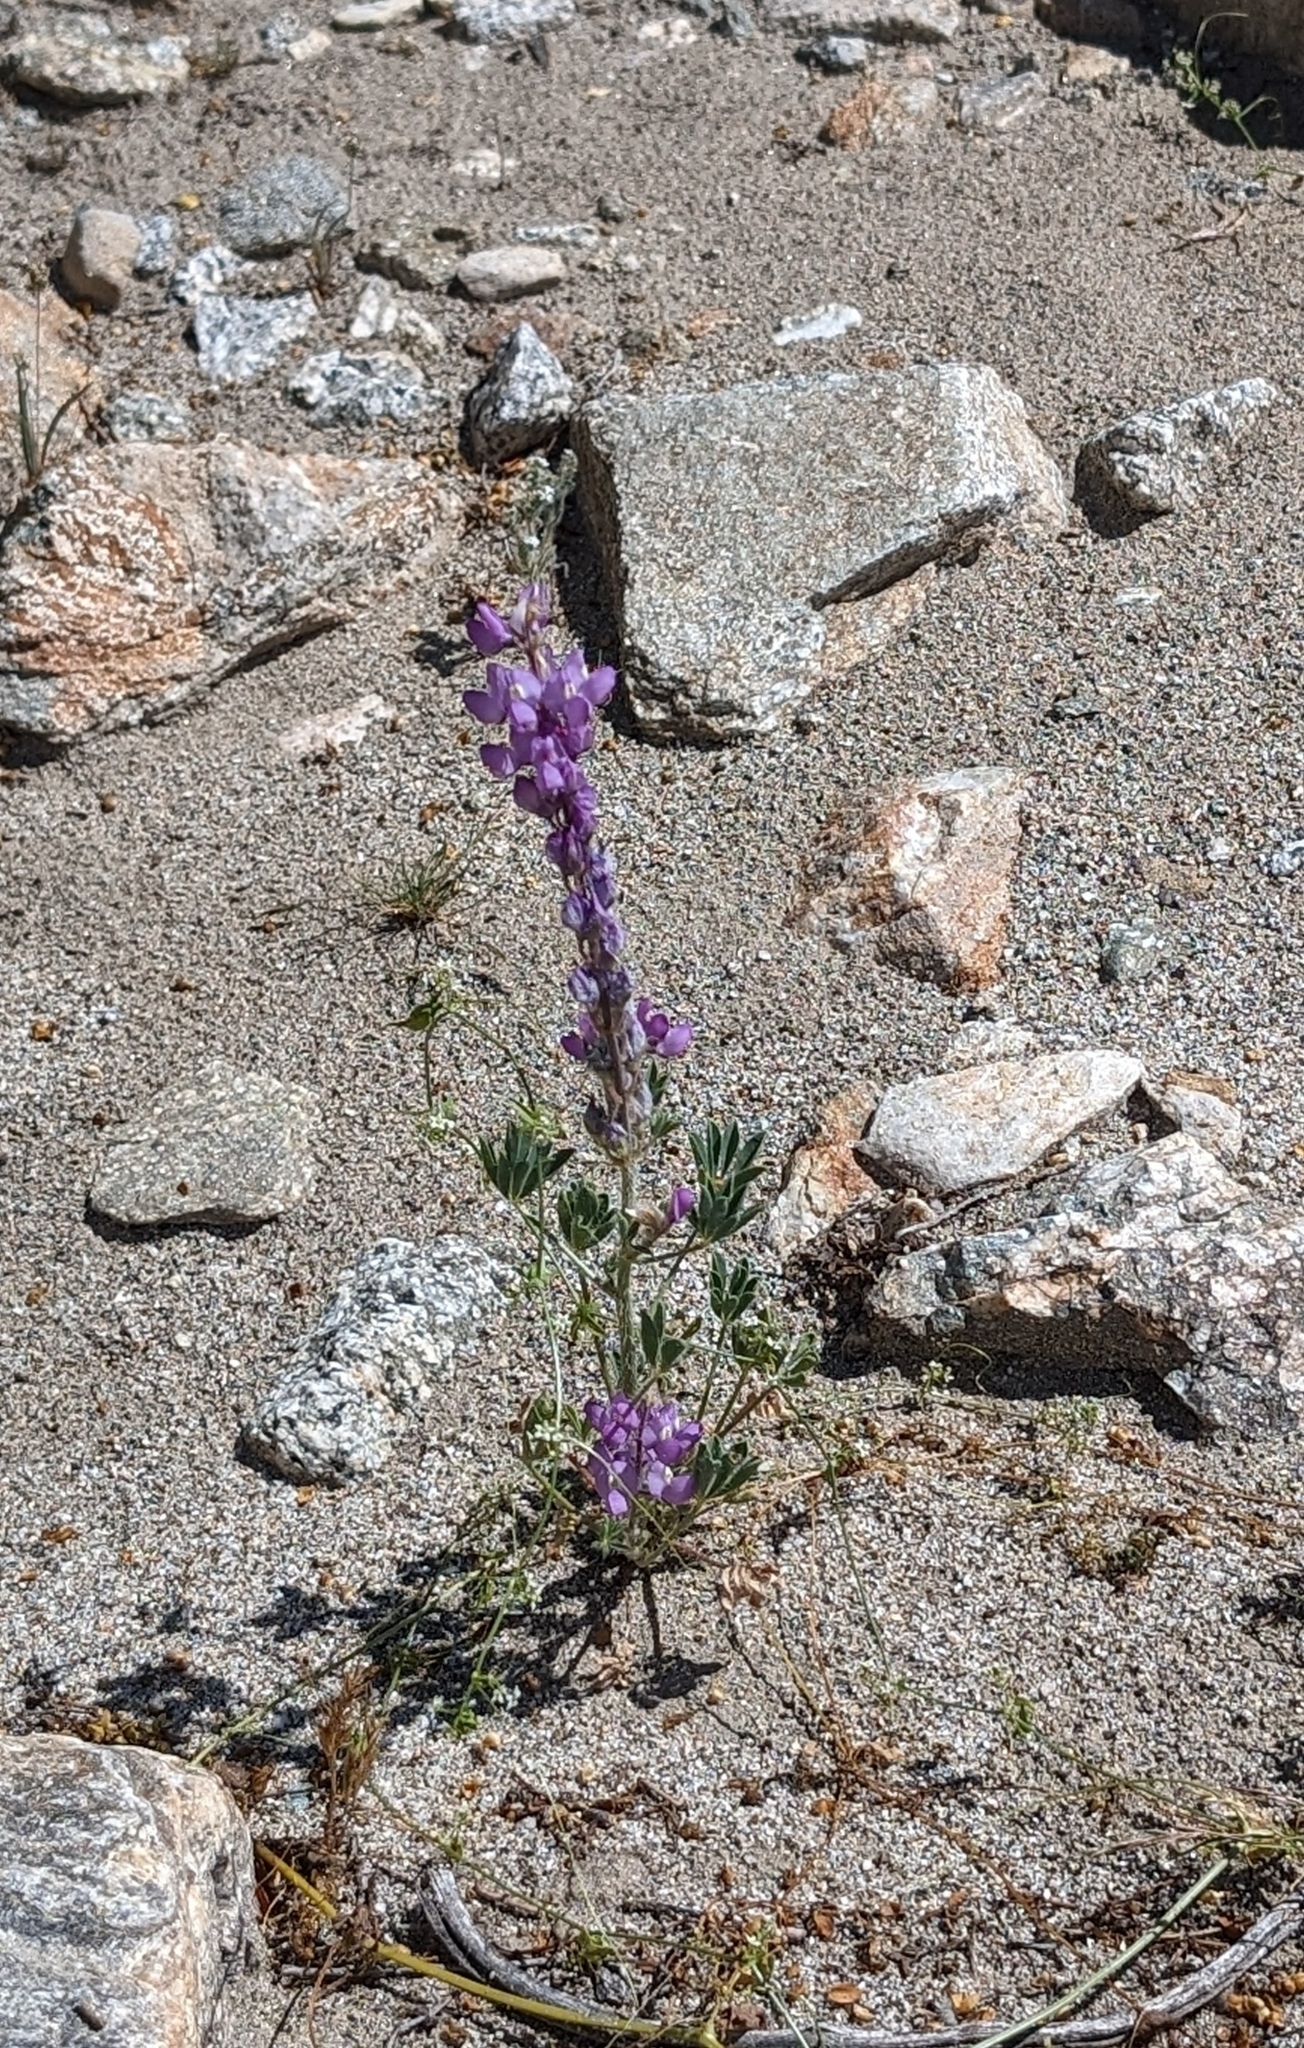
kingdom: Plantae
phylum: Tracheophyta
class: Magnoliopsida
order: Fabales
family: Fabaceae
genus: Lupinus
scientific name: Lupinus arizonicus
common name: Arizona lupine
